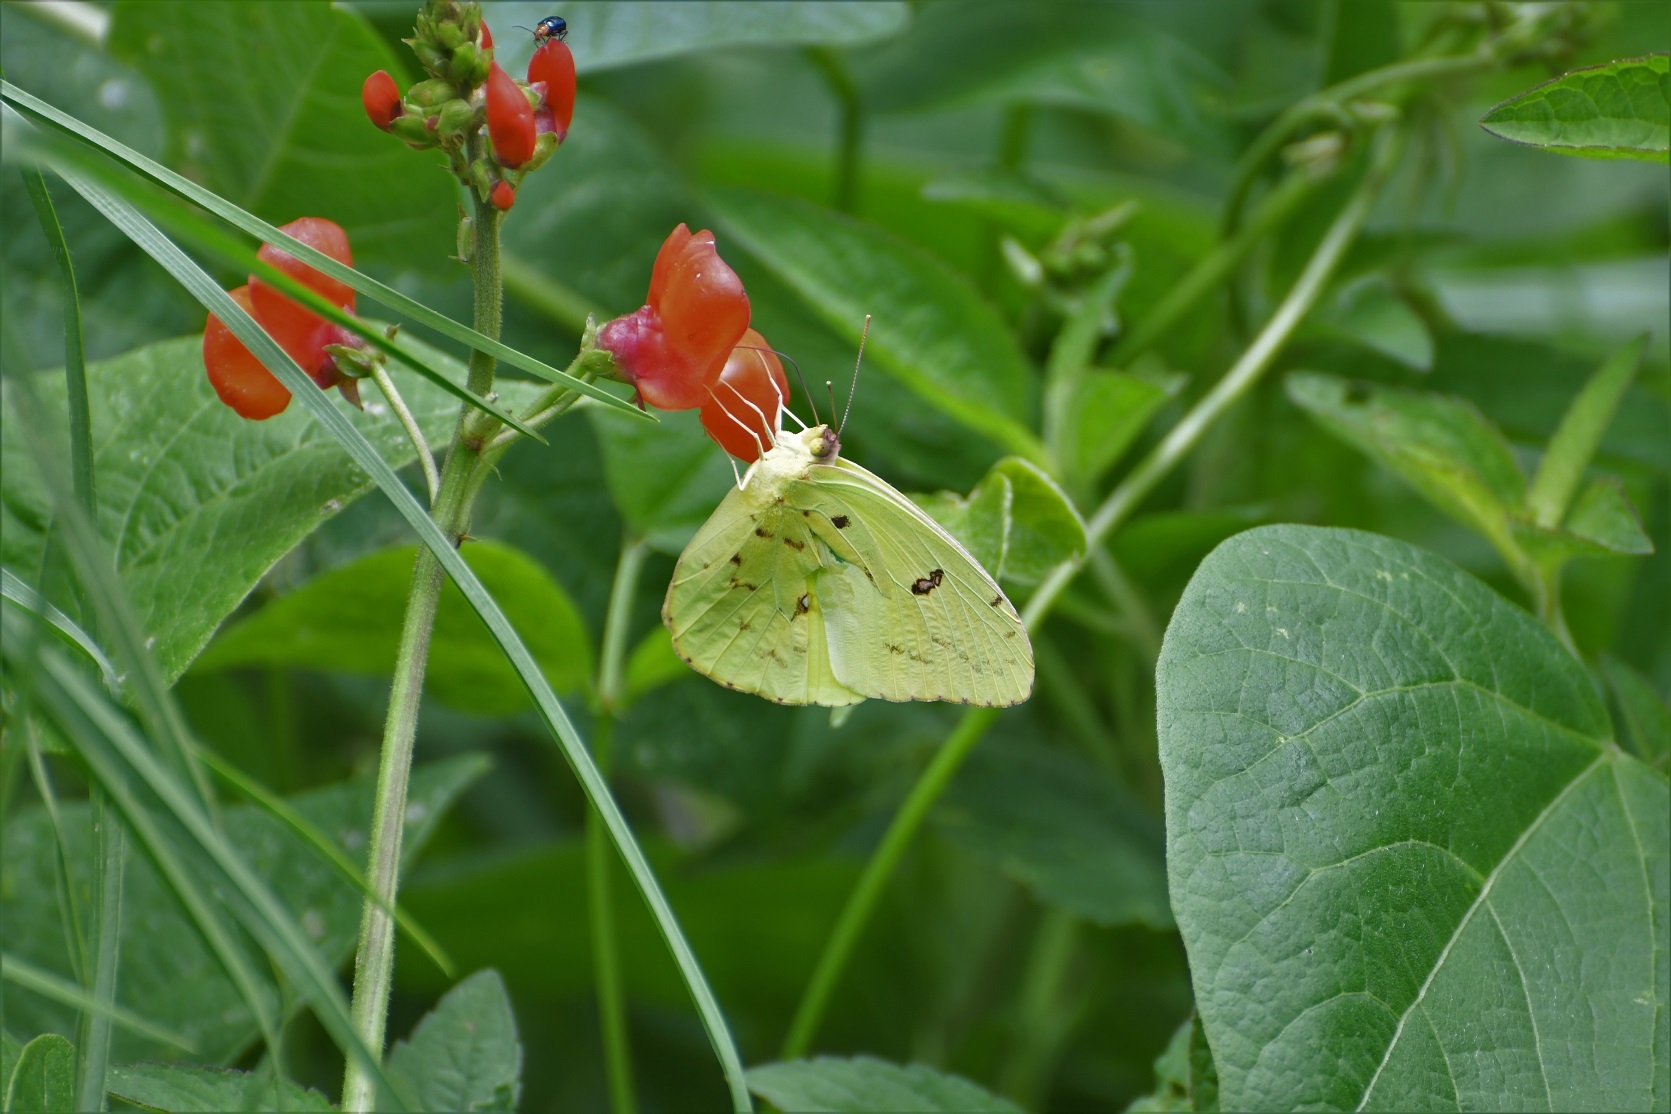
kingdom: Animalia
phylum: Arthropoda
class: Insecta
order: Lepidoptera
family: Pieridae
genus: Phoebis
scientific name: Phoebis marcellina
